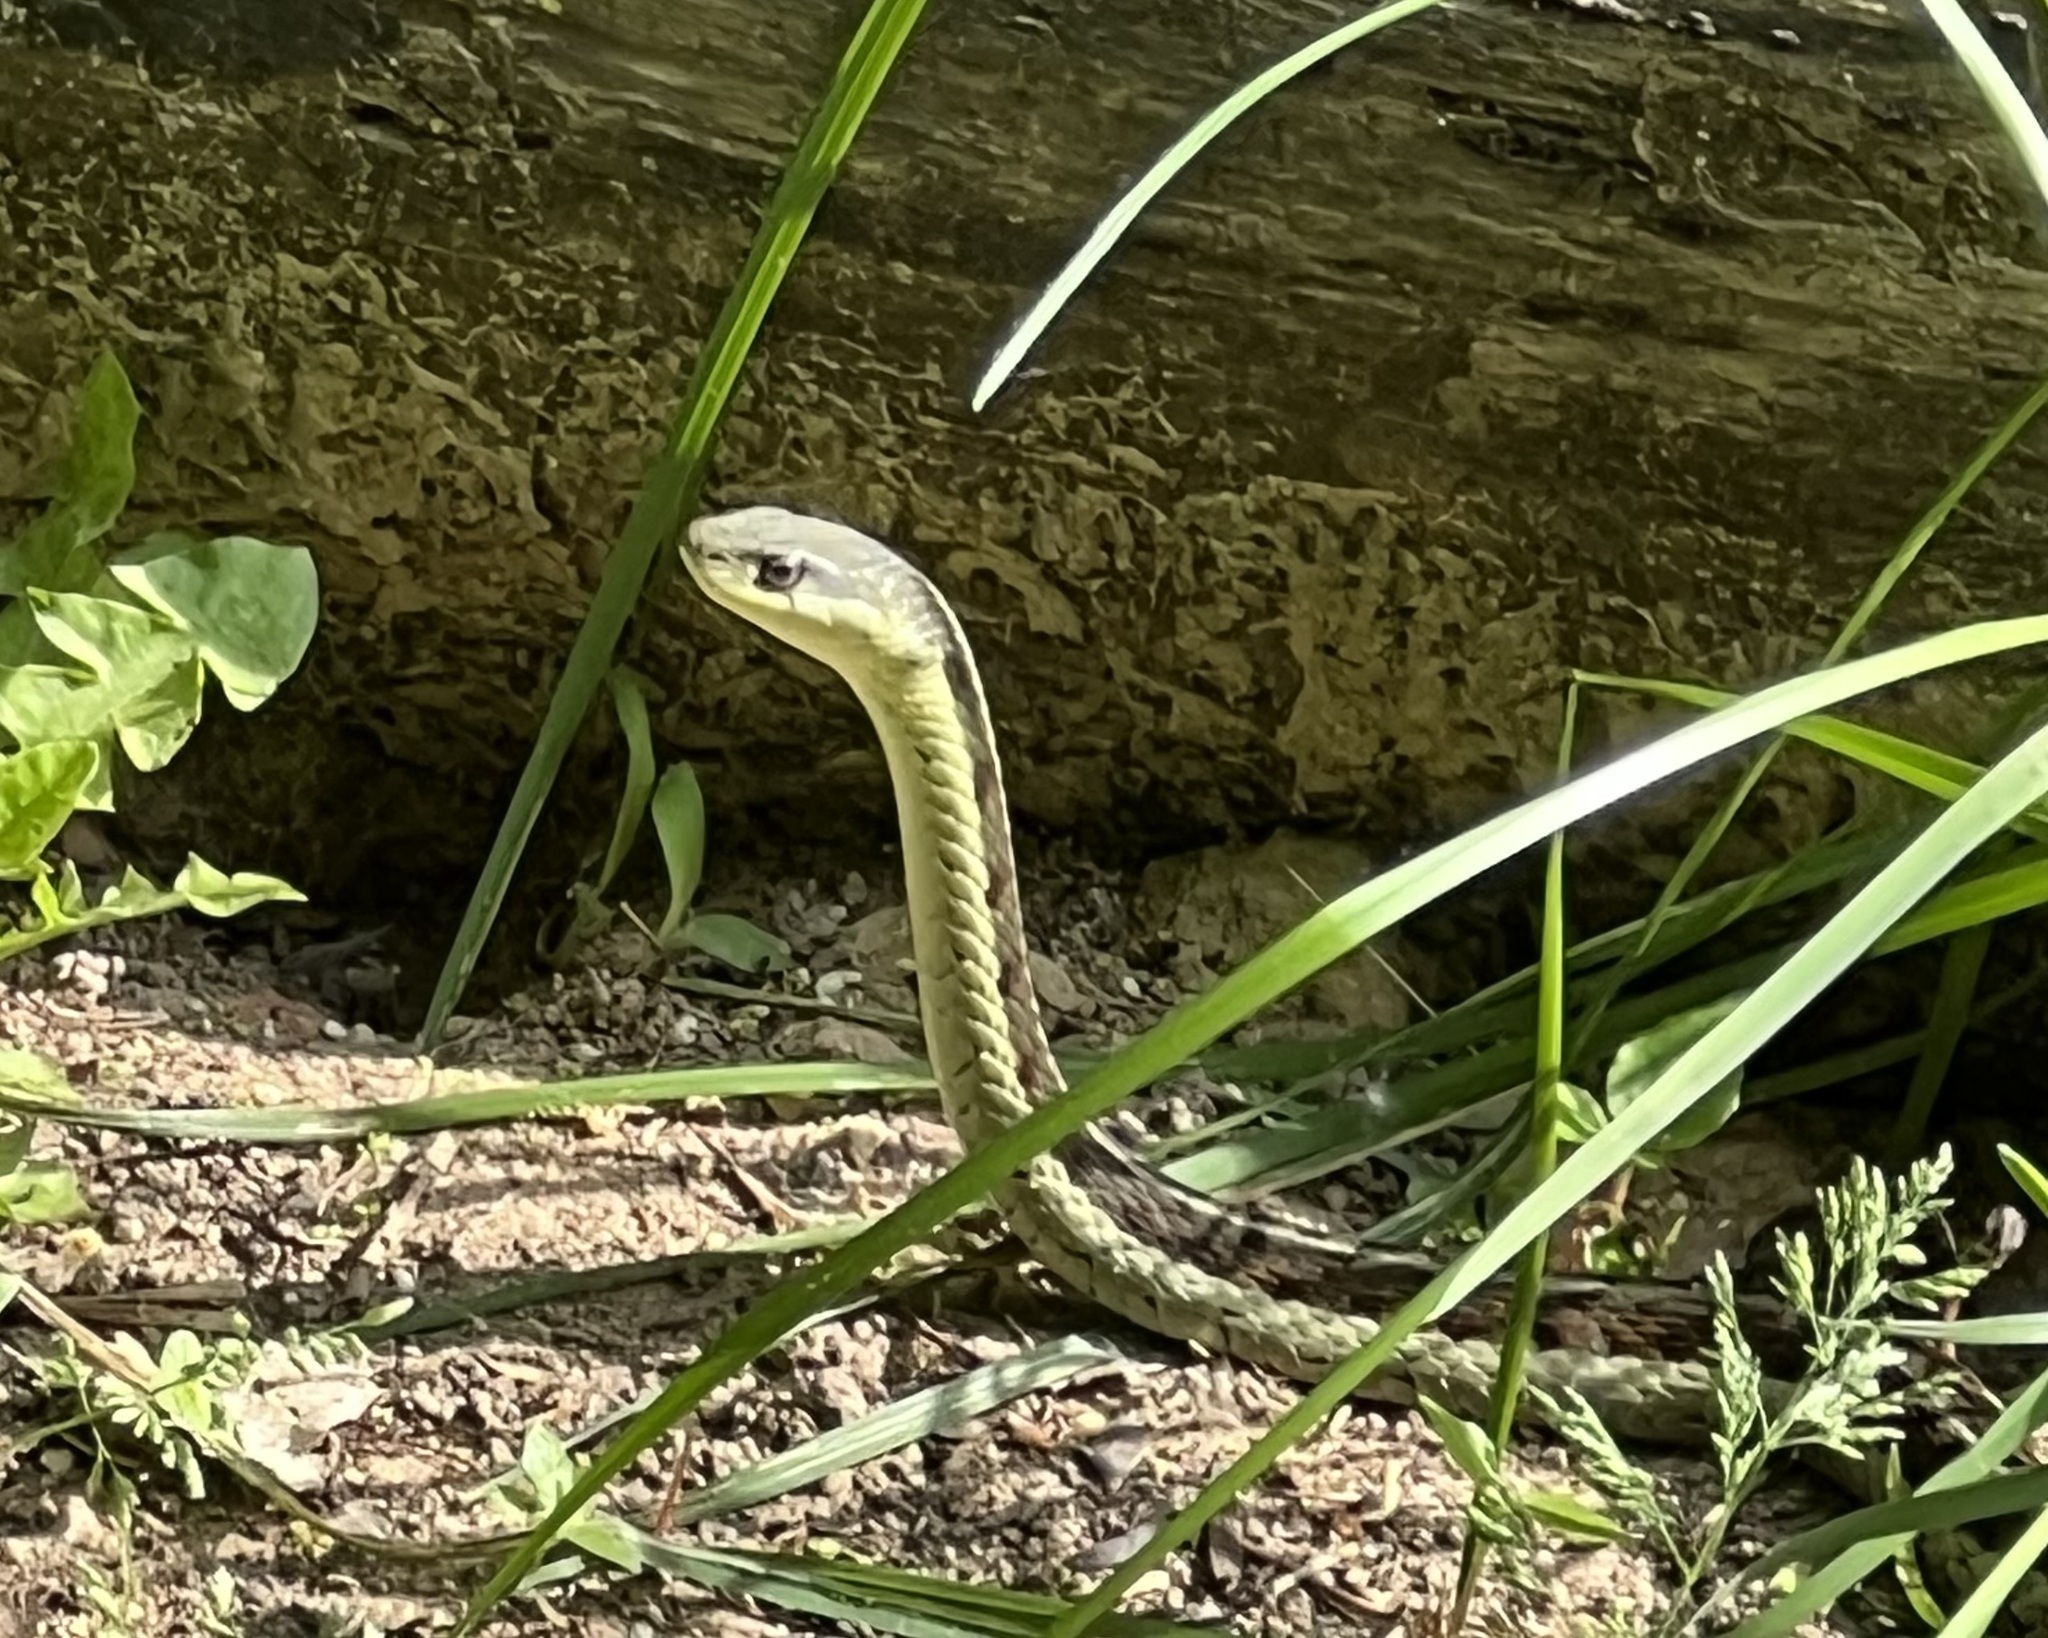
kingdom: Animalia
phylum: Chordata
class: Squamata
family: Colubridae
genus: Thamnophis
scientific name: Thamnophis sirtalis
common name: Common garter snake
